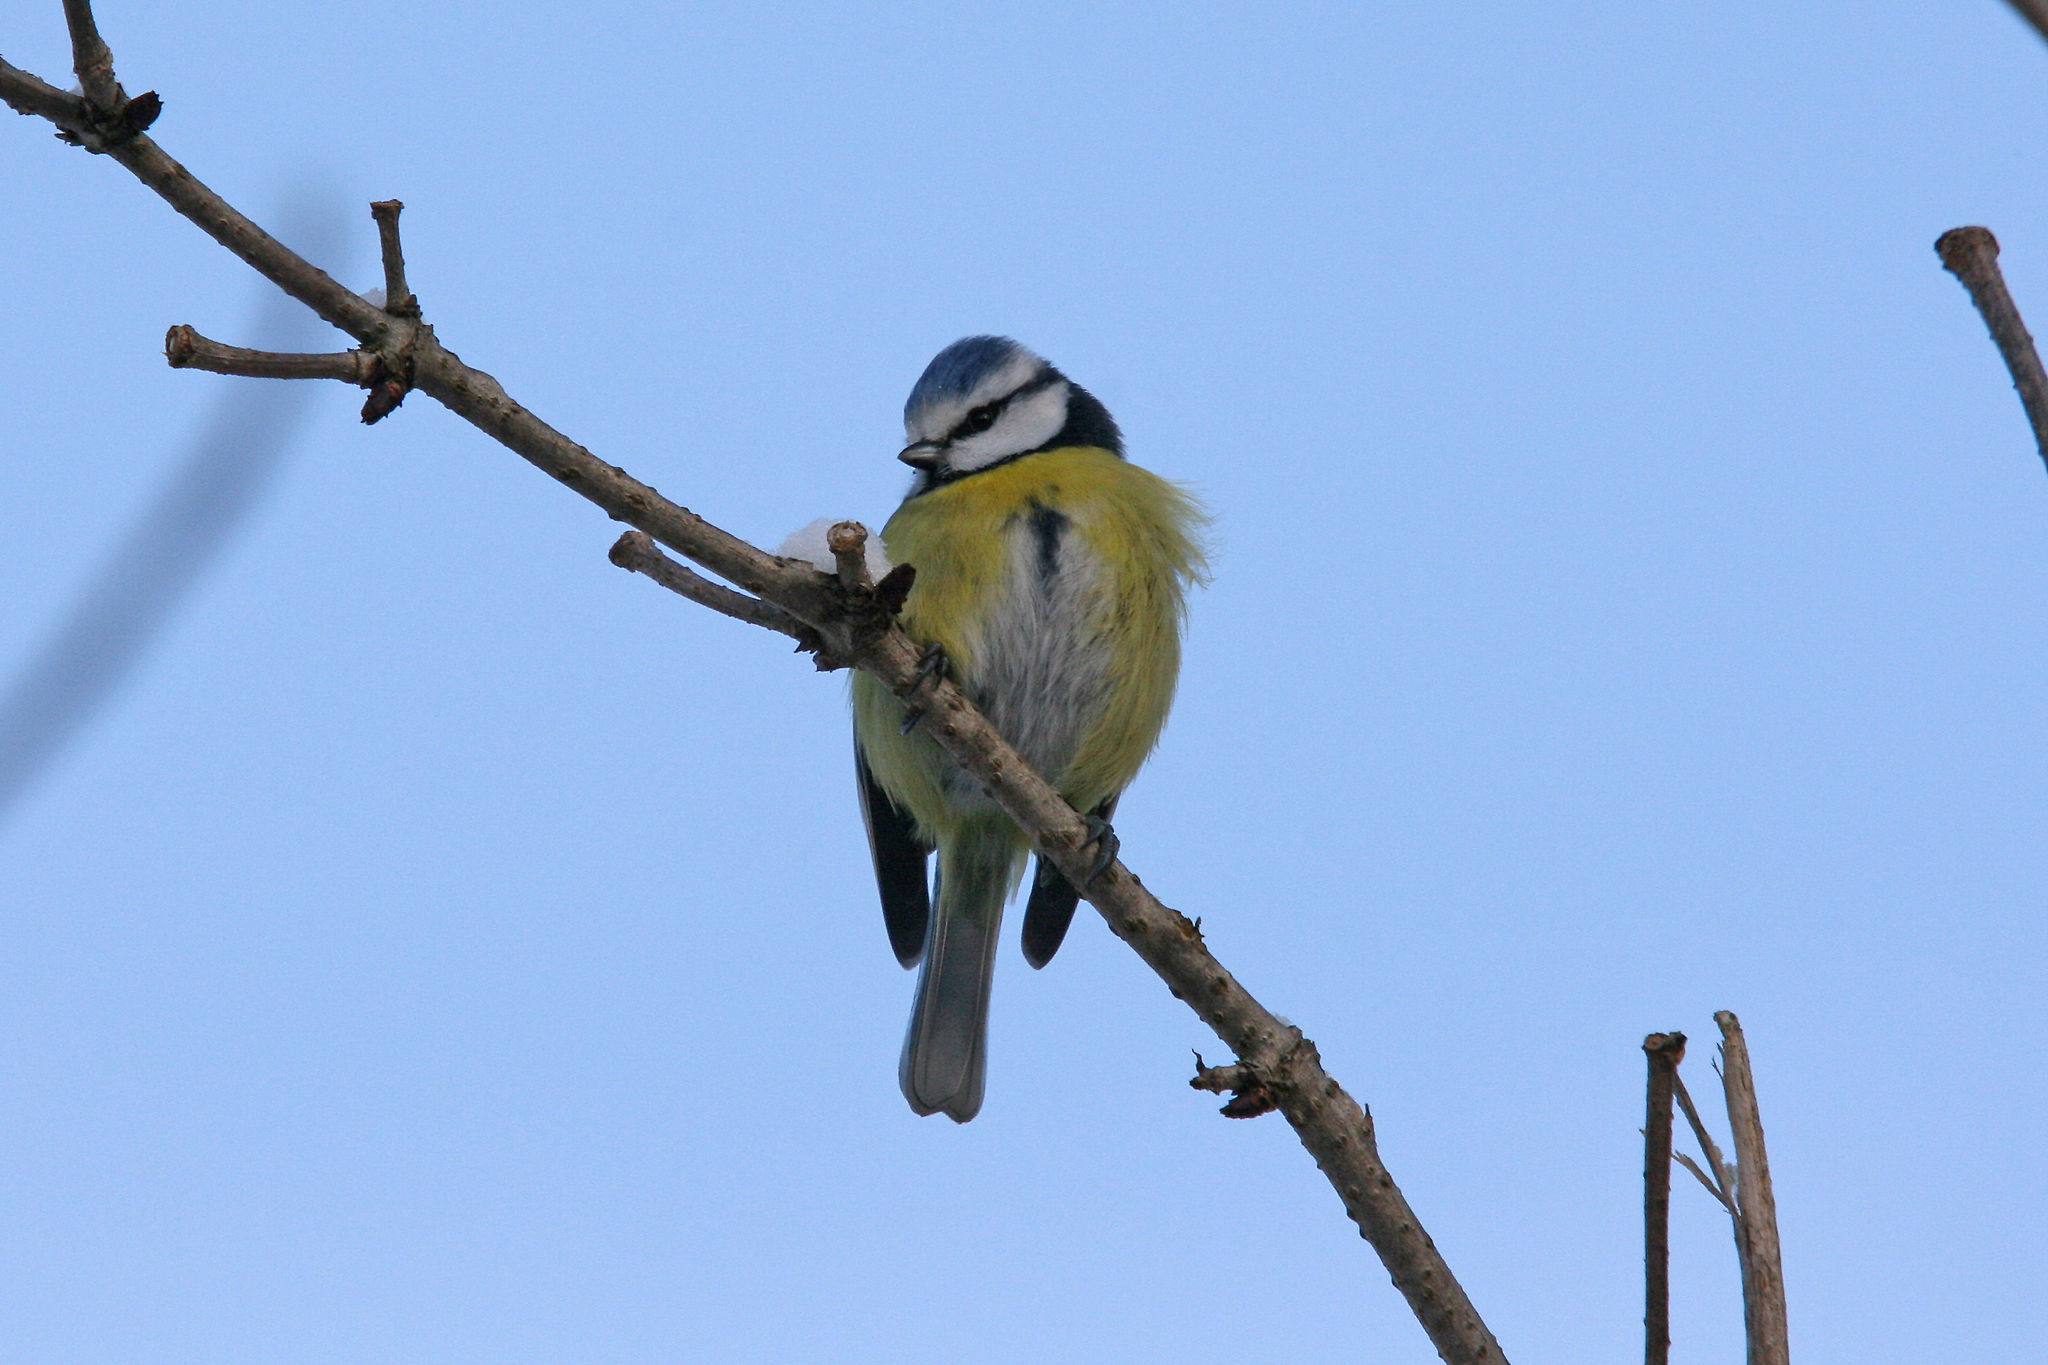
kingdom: Animalia
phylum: Chordata
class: Aves
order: Passeriformes
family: Paridae
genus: Cyanistes
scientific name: Cyanistes caeruleus
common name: Eurasian blue tit
